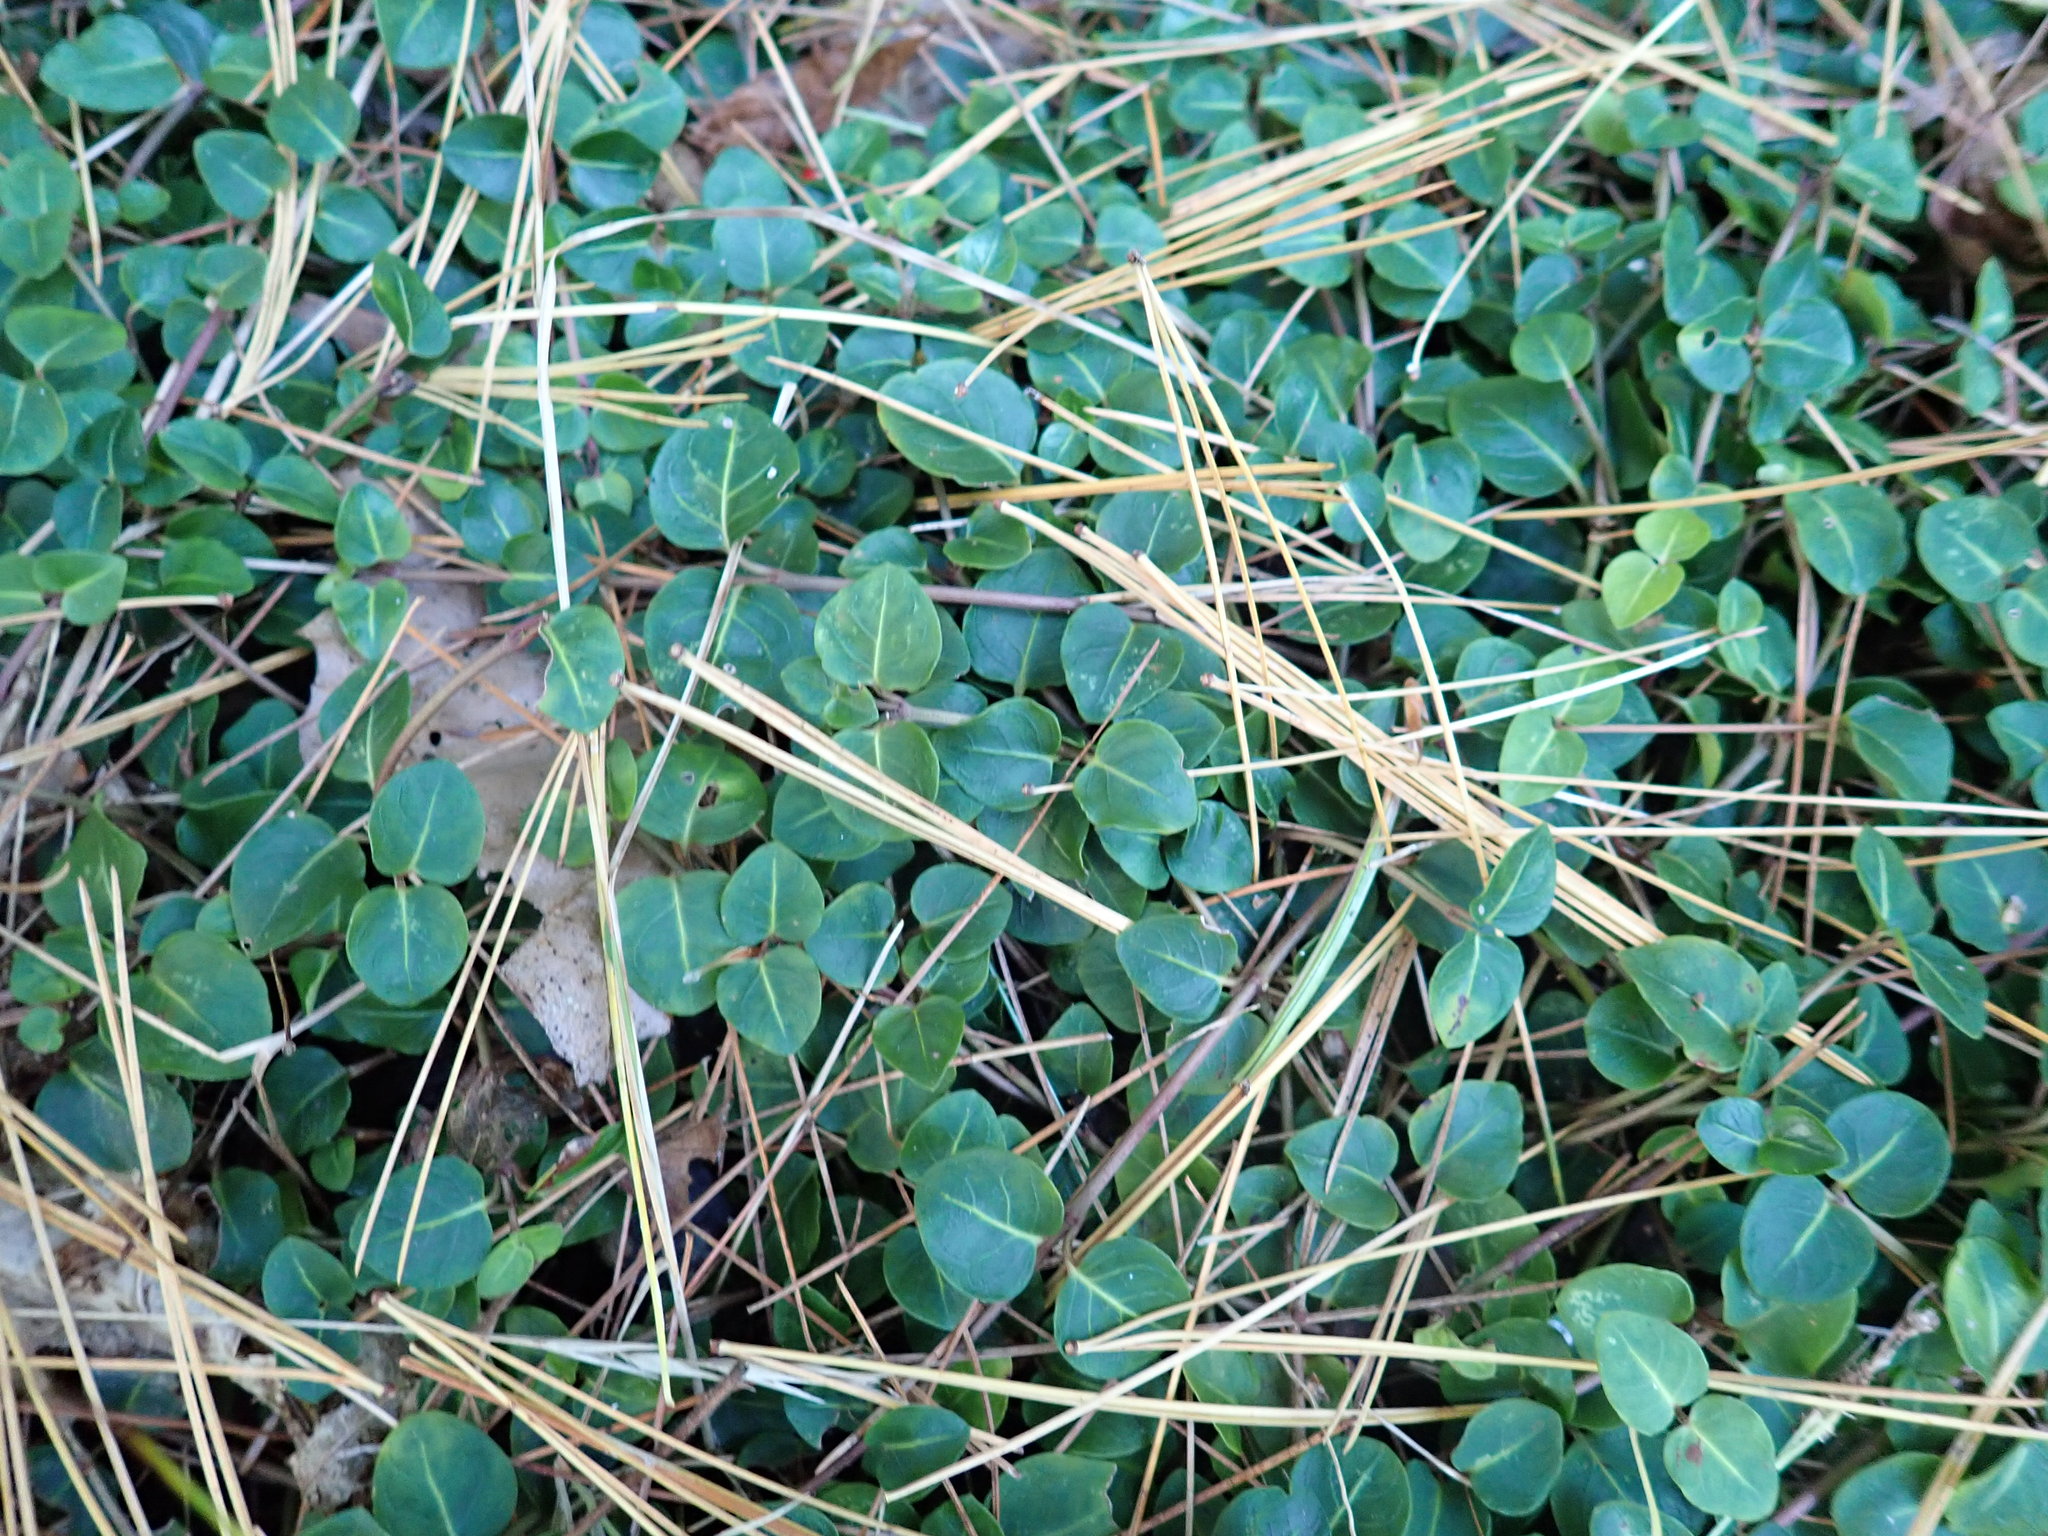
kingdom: Plantae
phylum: Tracheophyta
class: Magnoliopsida
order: Gentianales
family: Rubiaceae
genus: Mitchella
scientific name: Mitchella repens
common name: Partridge-berry
